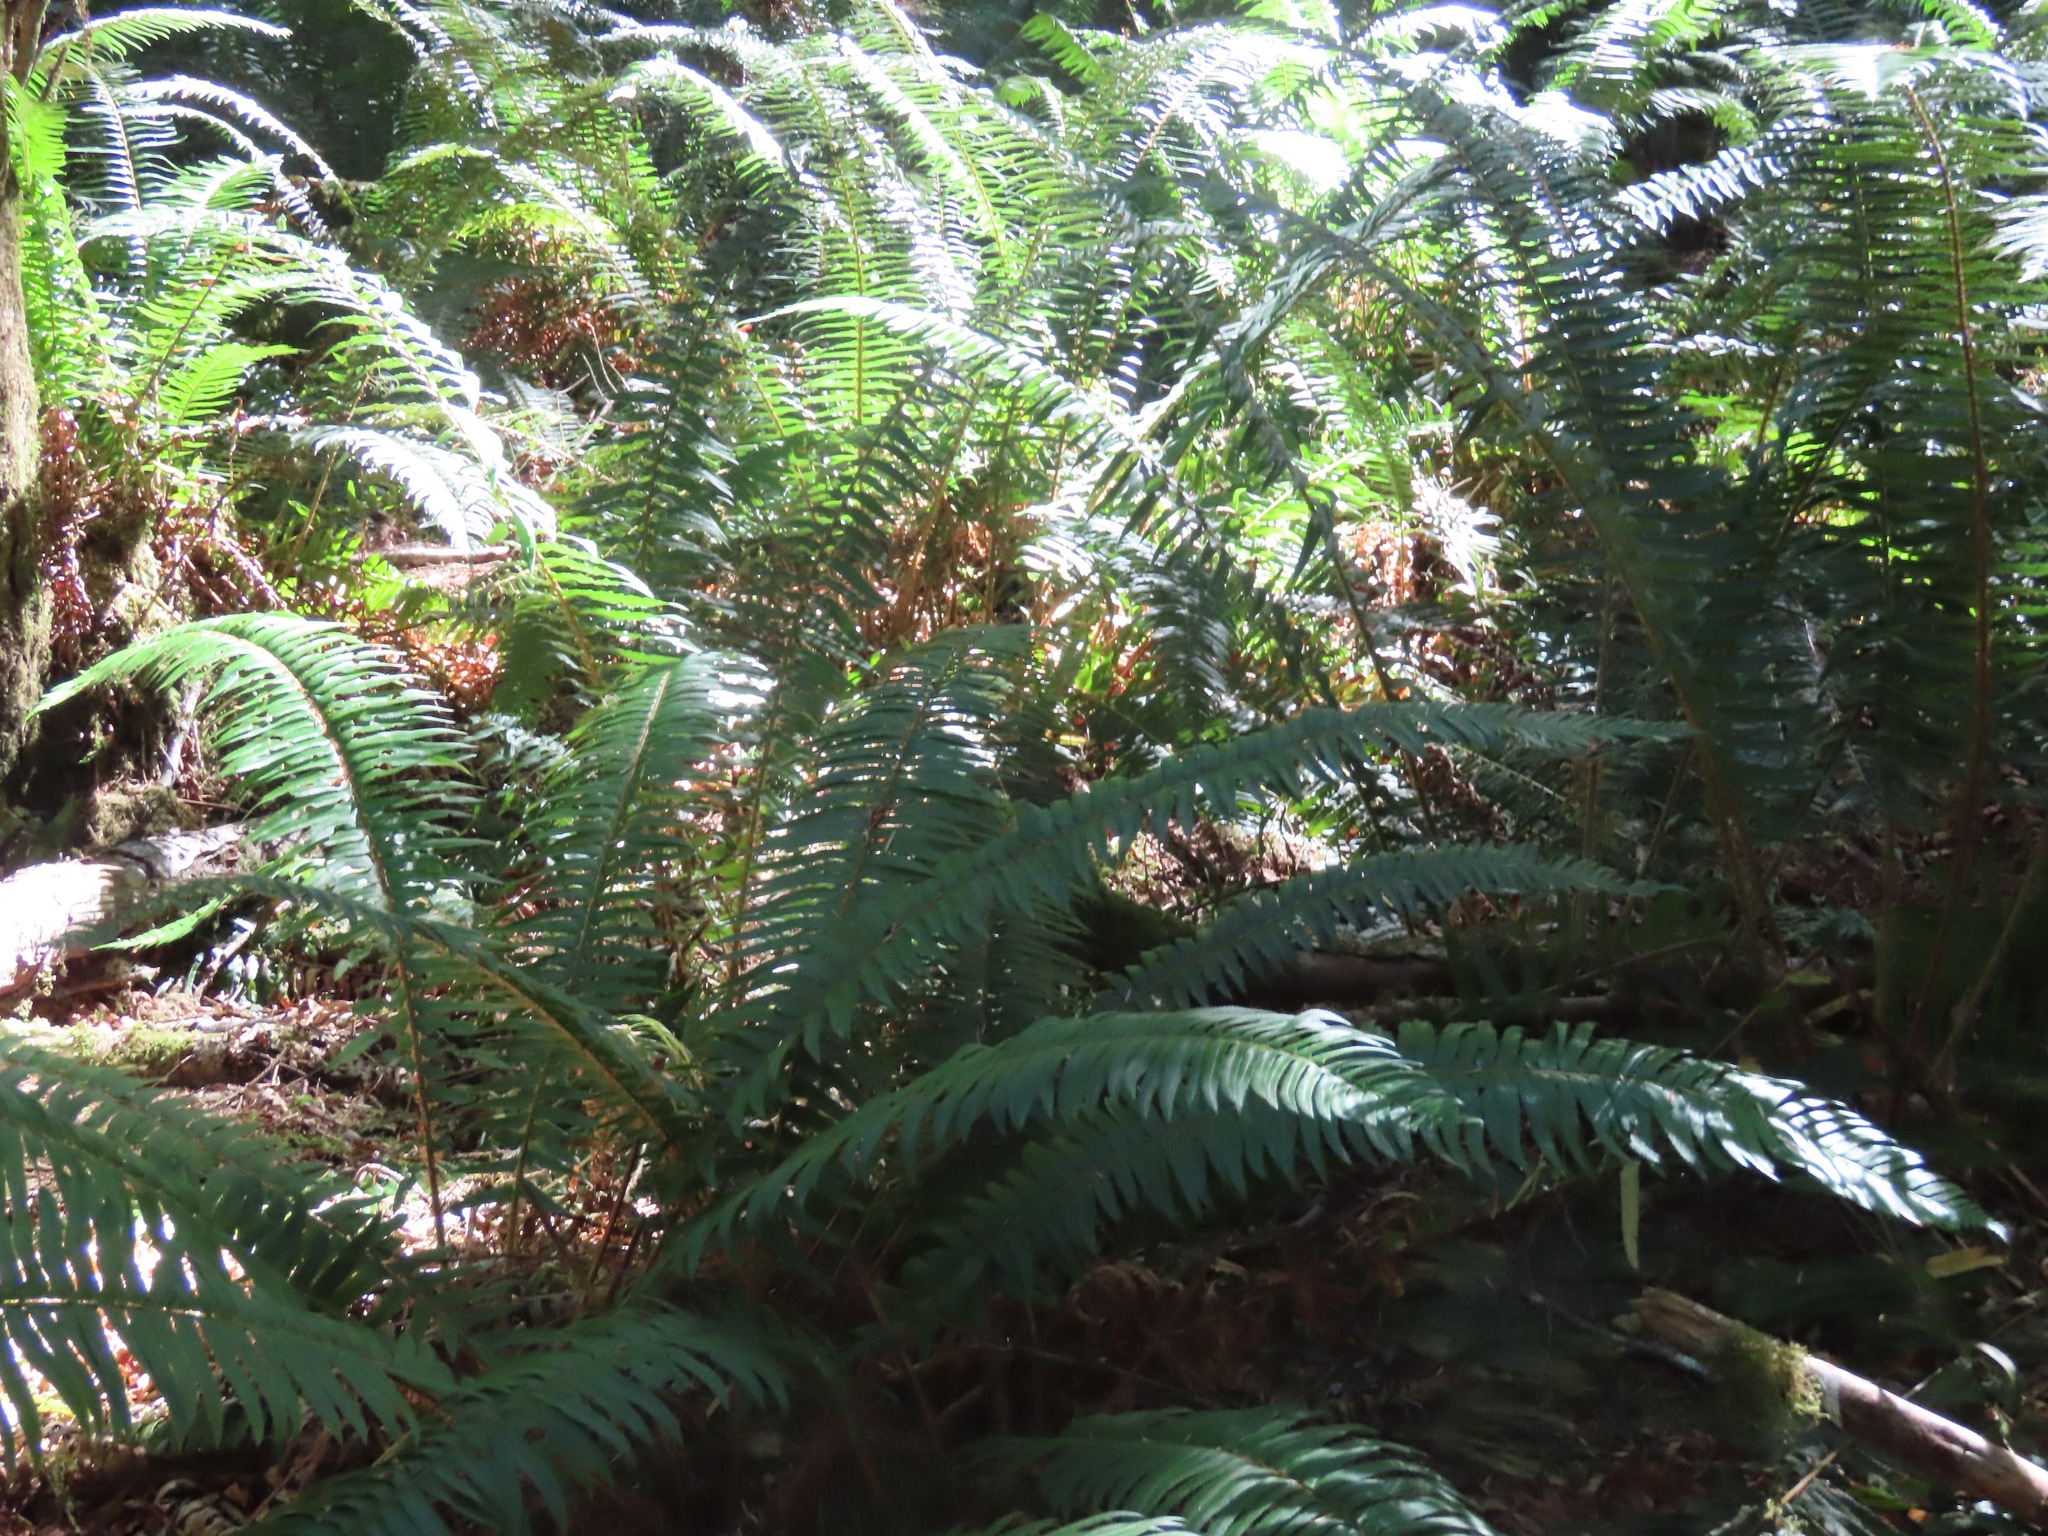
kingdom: Plantae
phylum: Tracheophyta
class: Polypodiopsida
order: Polypodiales
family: Dryopteridaceae
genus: Polystichum
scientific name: Polystichum munitum
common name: Western sword-fern
